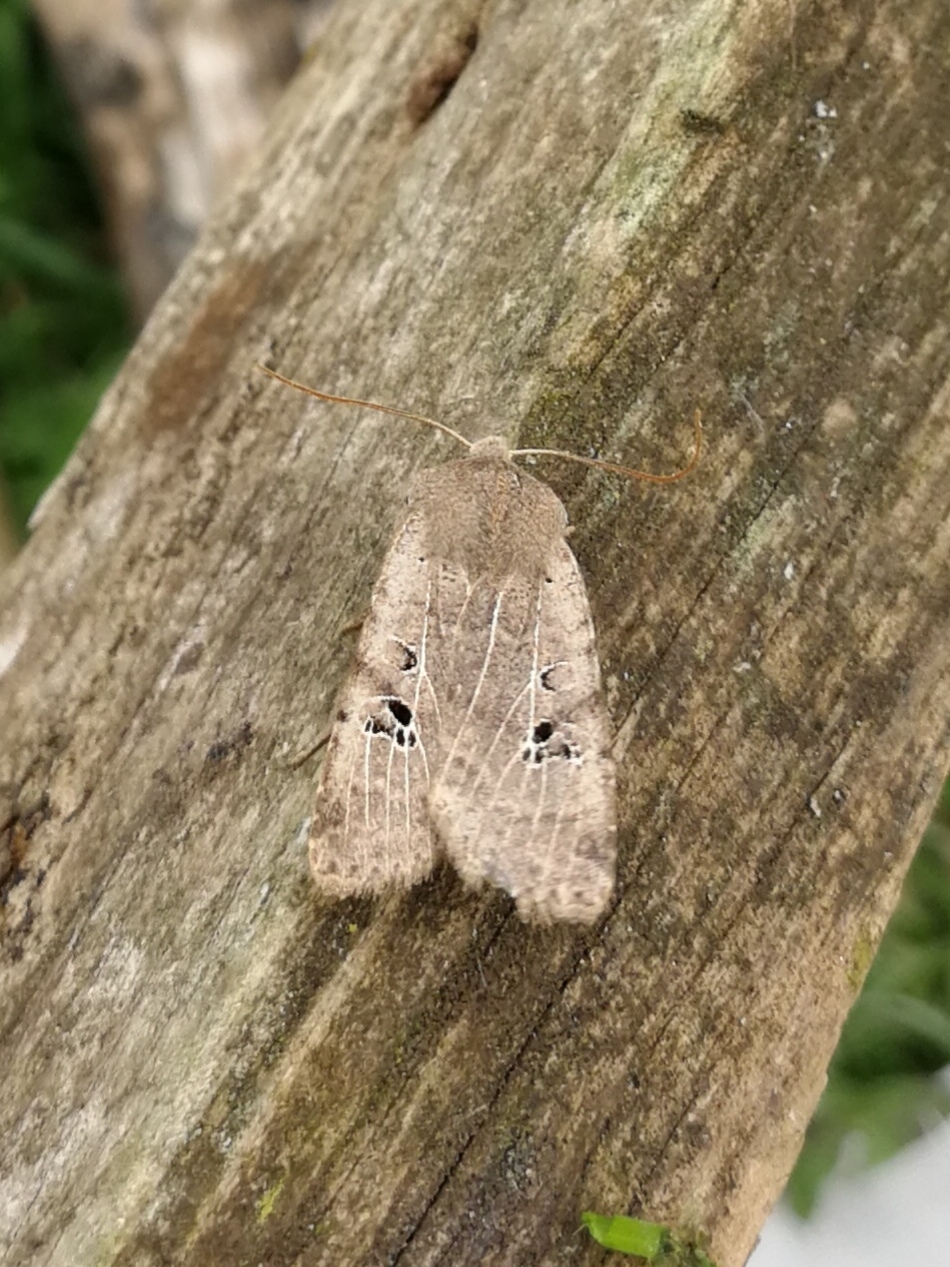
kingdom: Animalia
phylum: Arthropoda
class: Insecta
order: Lepidoptera
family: Noctuidae
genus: Conistra
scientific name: Conistra rubiginosa
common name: Black-spotted chestnut
